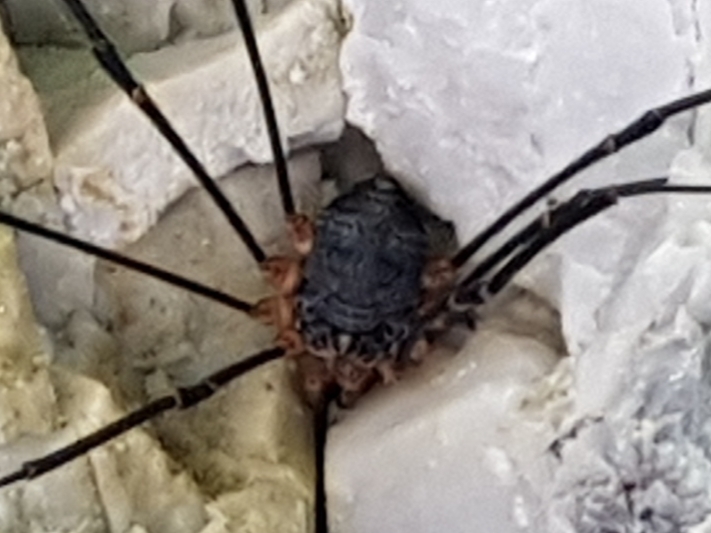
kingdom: Animalia
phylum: Arthropoda
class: Arachnida
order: Opiliones
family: Sclerosomatidae
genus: Gyas
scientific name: Gyas annulatus
